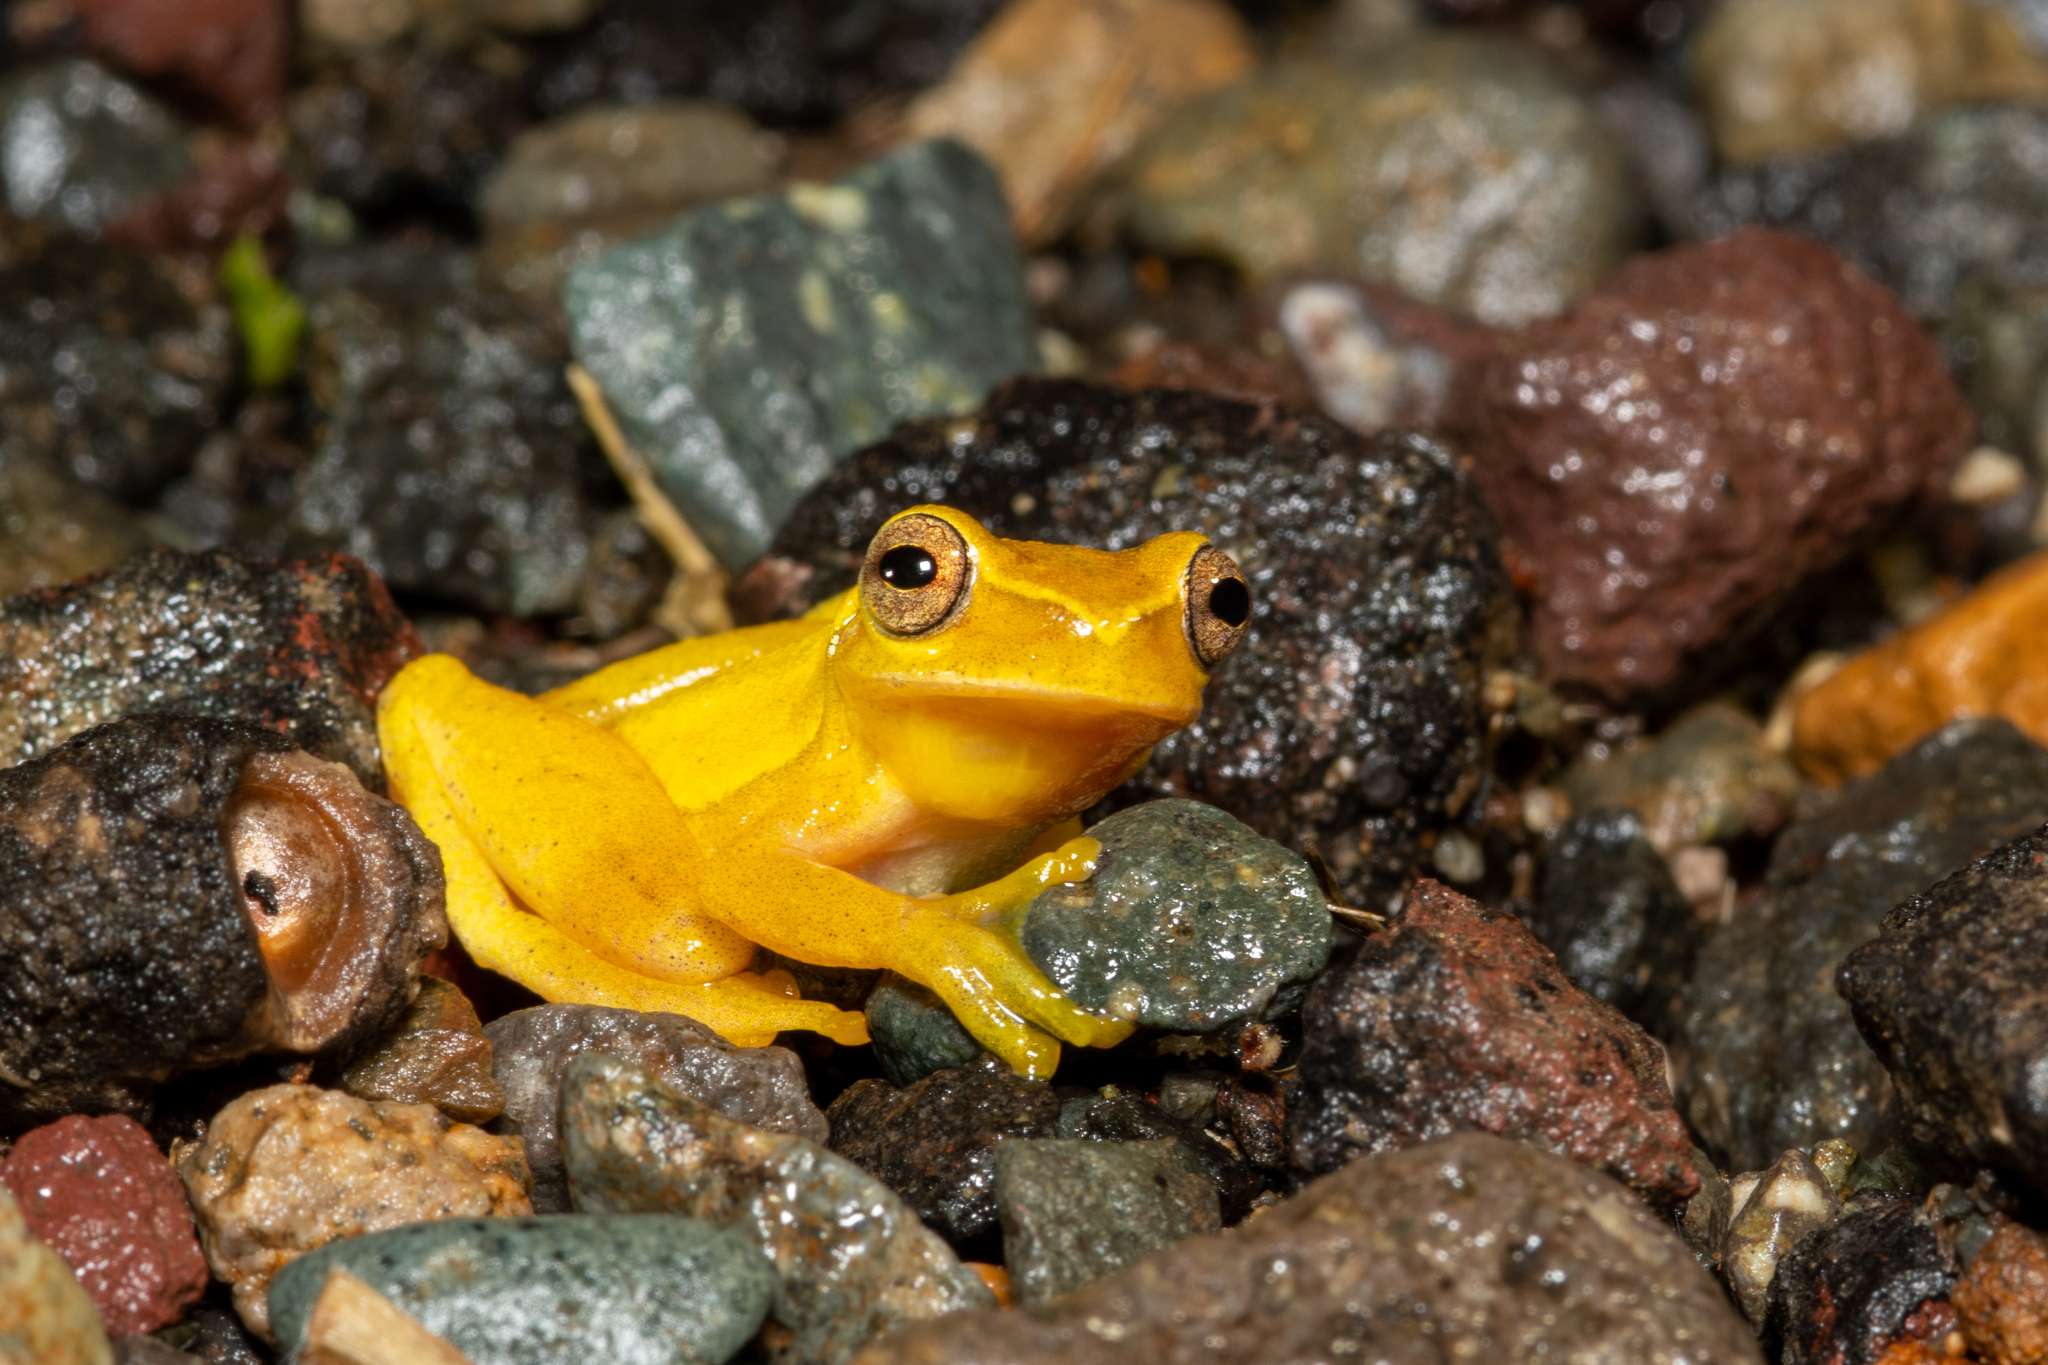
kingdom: Animalia
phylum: Chordata
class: Amphibia
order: Anura
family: Hylidae
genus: Dendropsophus
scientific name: Dendropsophus microcephalus
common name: Small-headed treefrog
